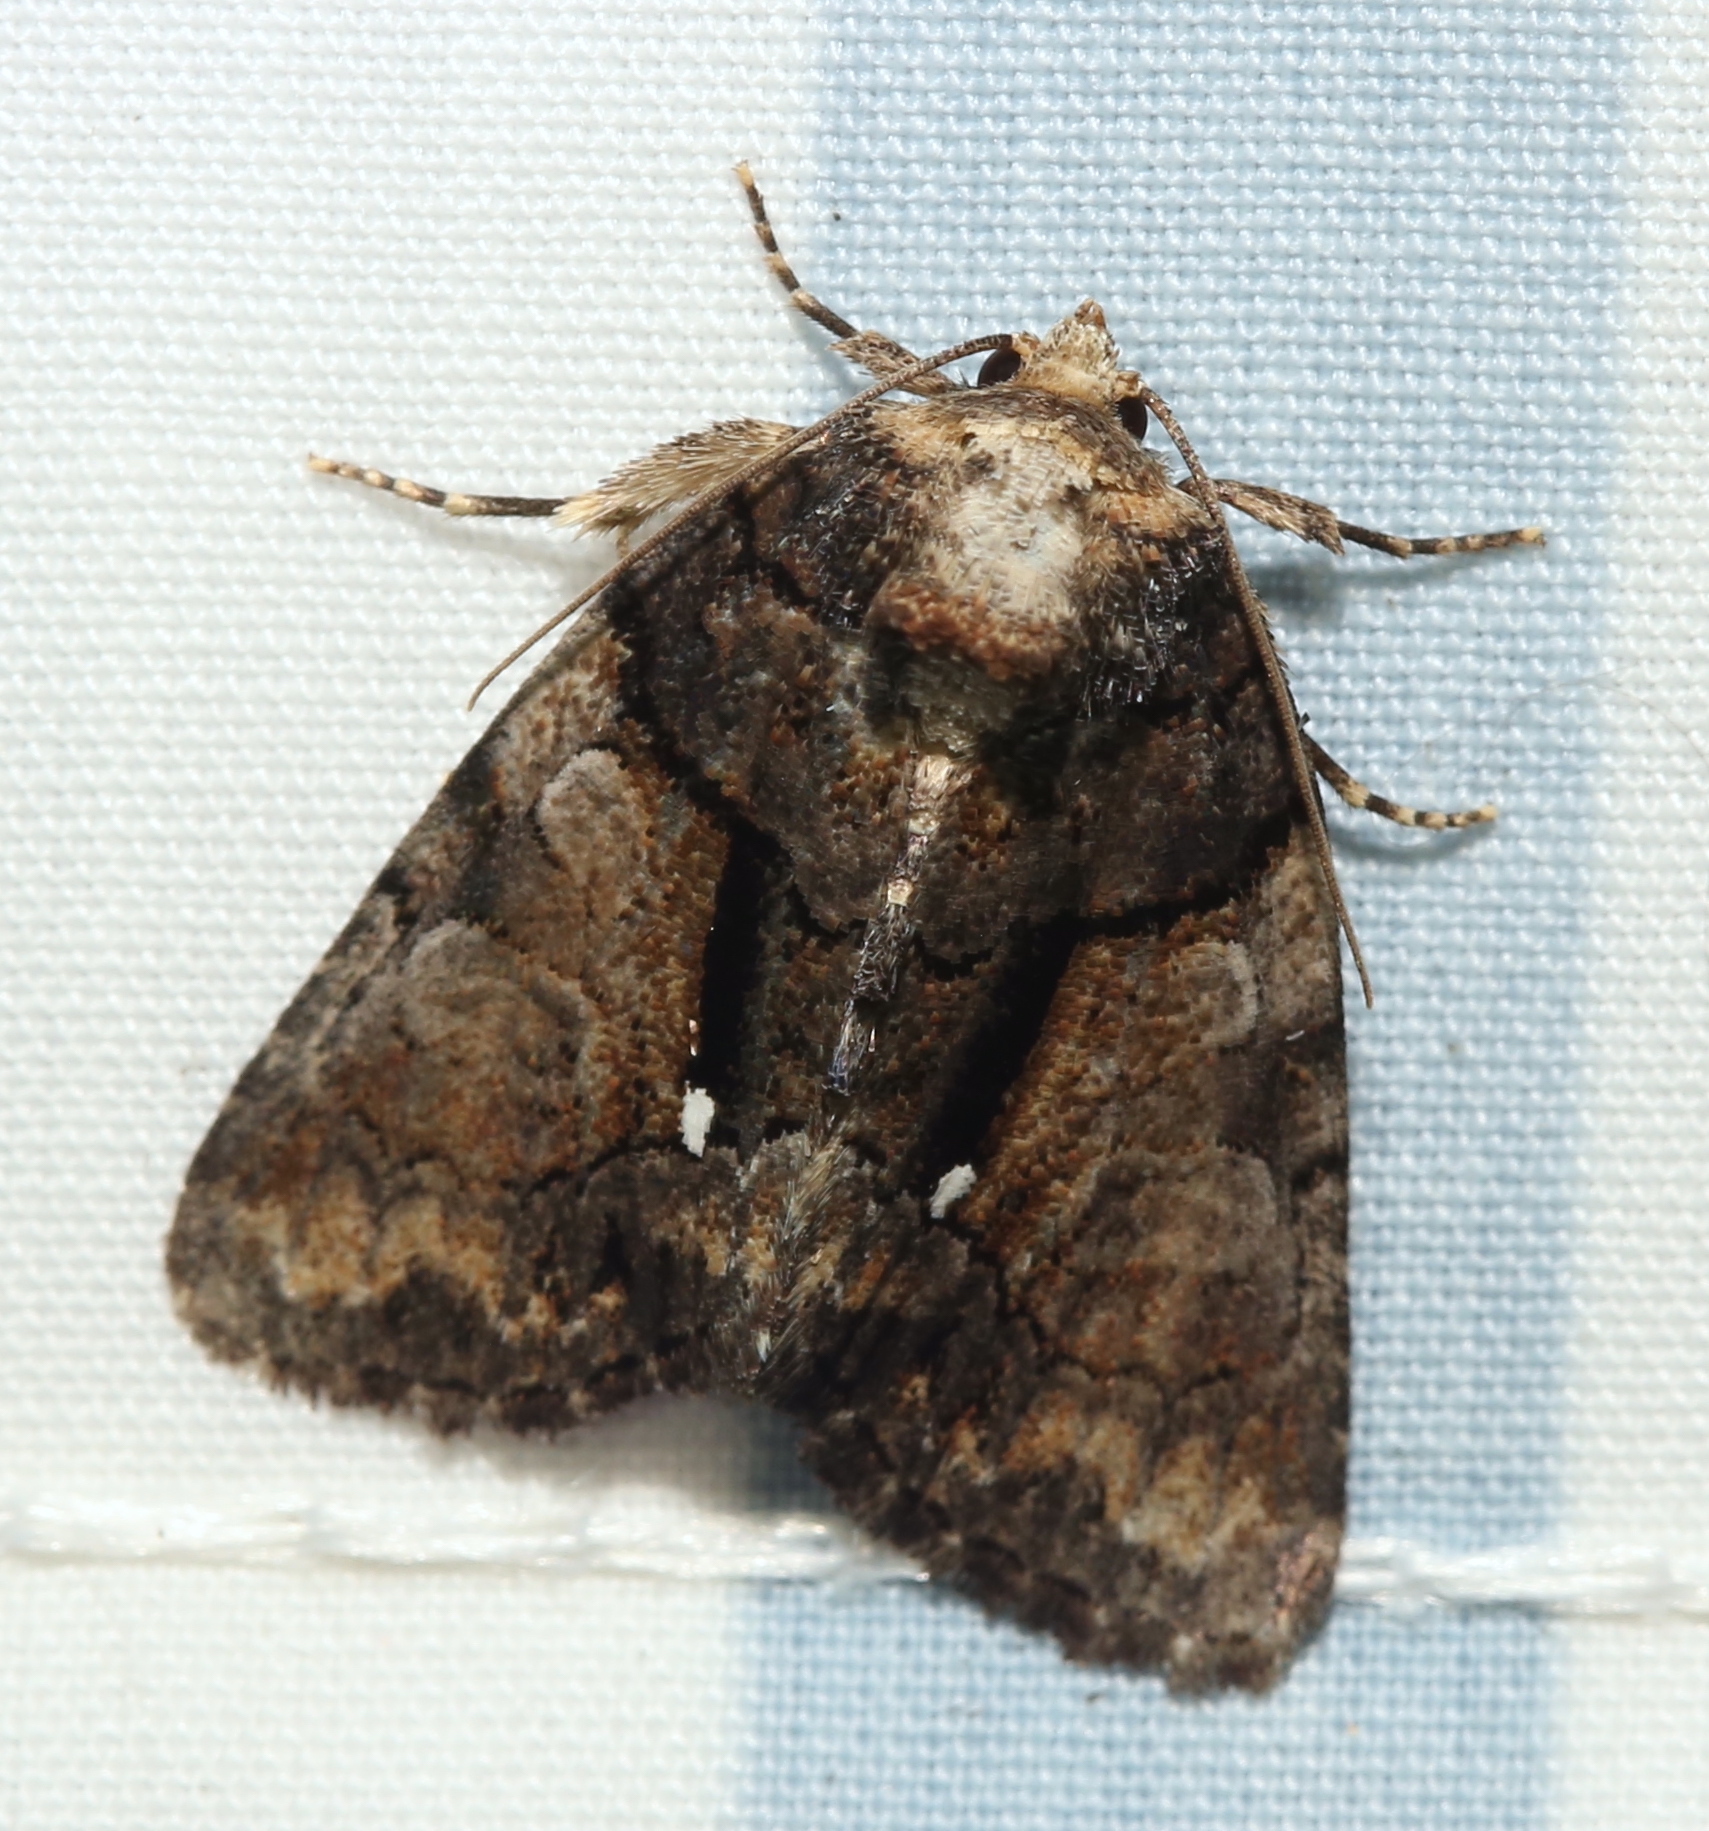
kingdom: Animalia
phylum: Arthropoda
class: Insecta
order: Lepidoptera
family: Noctuidae
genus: Chytonix
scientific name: Chytonix palliatricula
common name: Cloaked marvel
